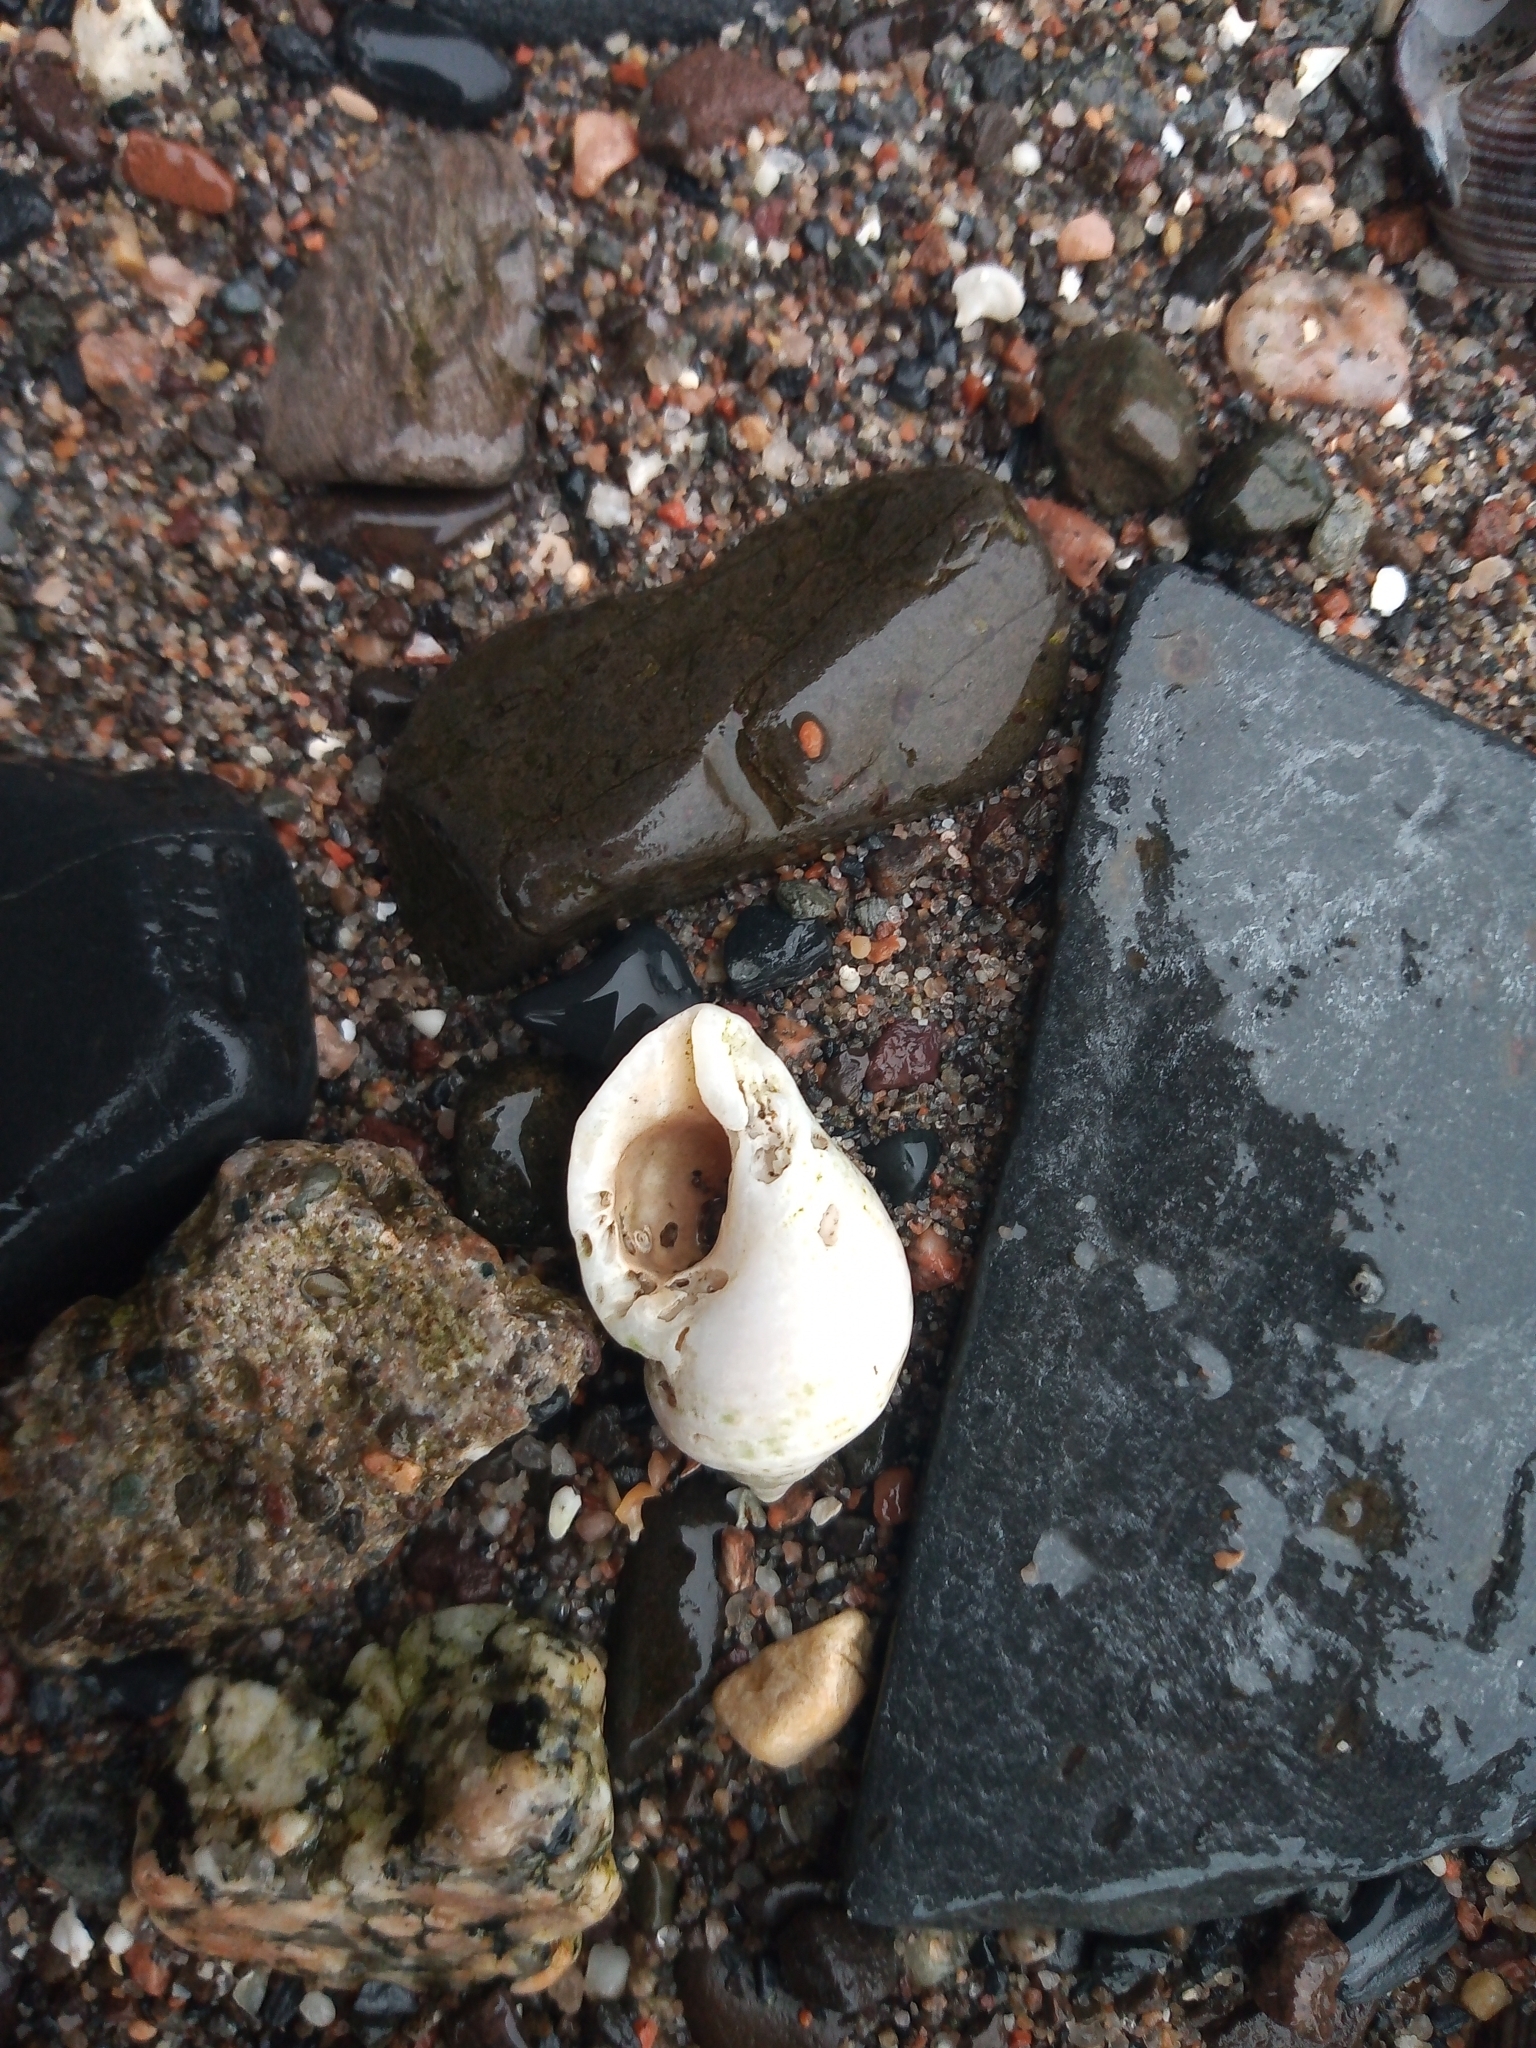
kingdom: Animalia
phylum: Mollusca
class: Gastropoda
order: Neogastropoda
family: Muricidae
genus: Nucella
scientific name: Nucella lapillus
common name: Dog whelk
